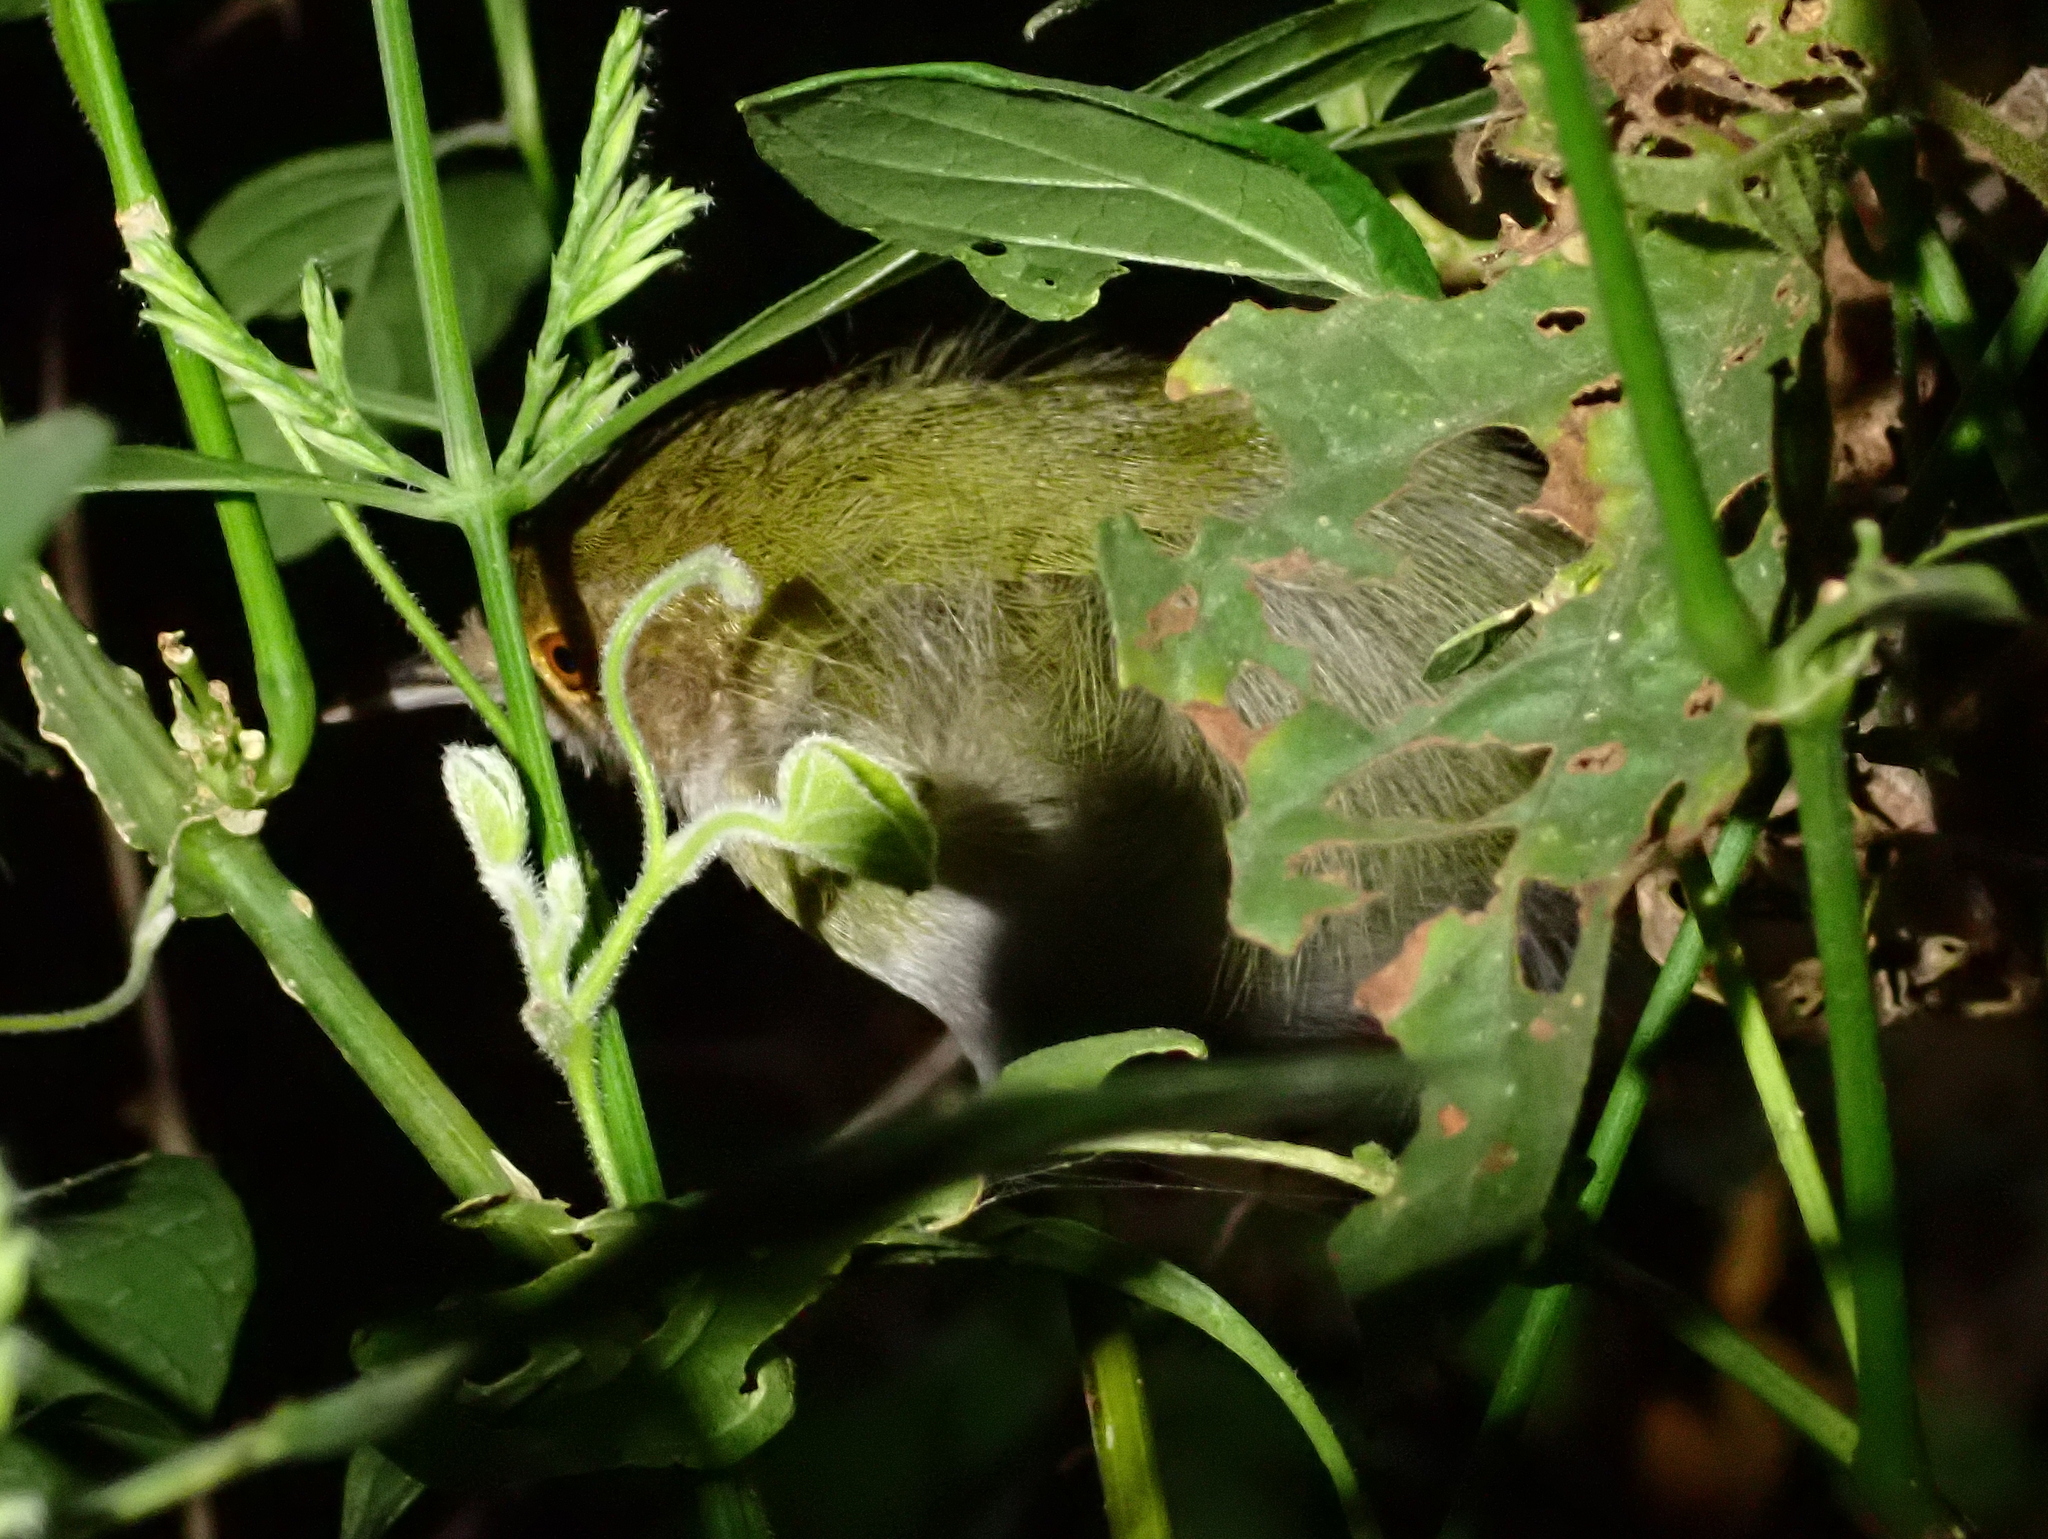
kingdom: Animalia
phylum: Chordata
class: Aves
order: Passeriformes
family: Cisticolidae
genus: Camaroptera
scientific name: Camaroptera chloronota
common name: Olive-green camaroptera
